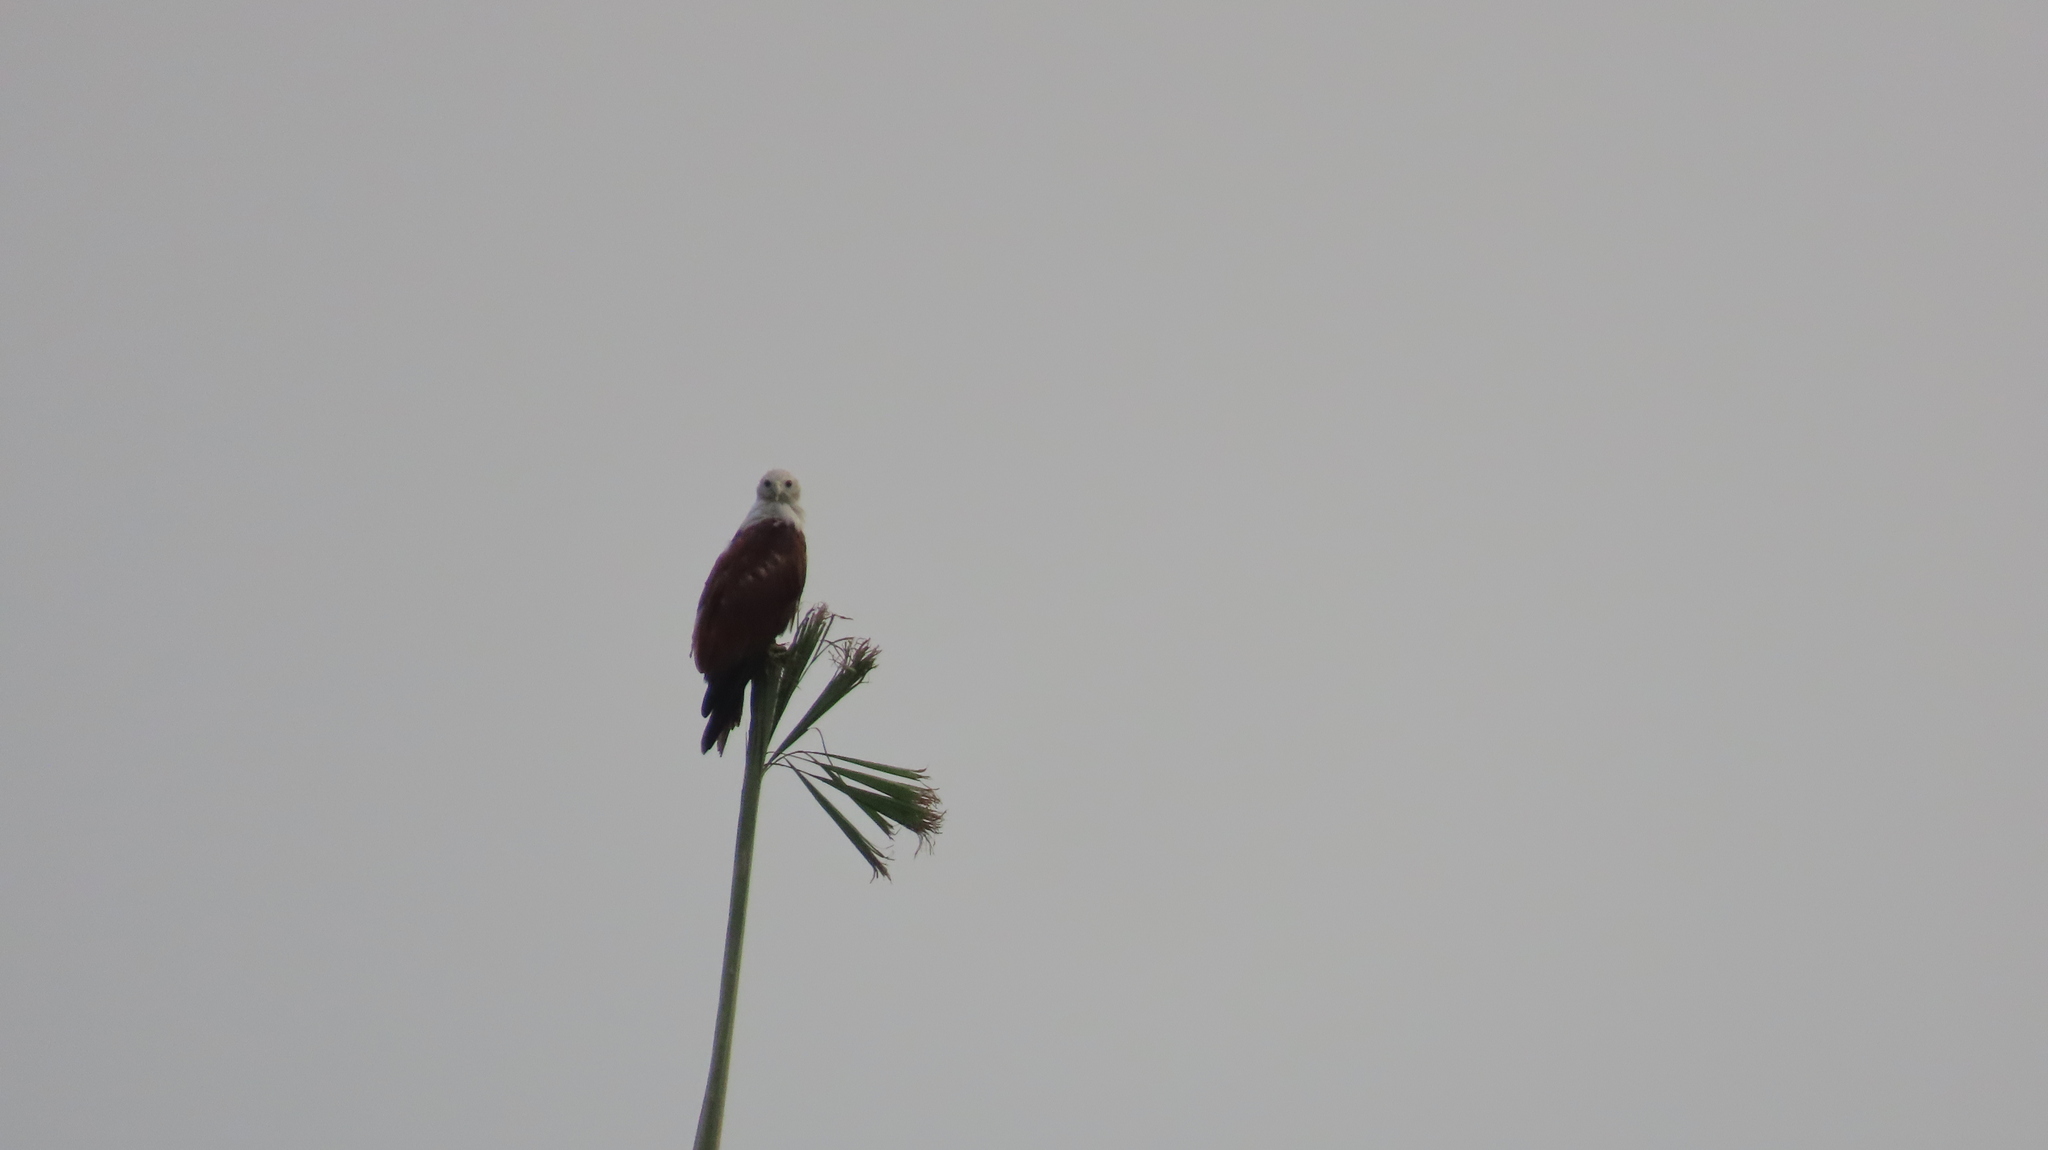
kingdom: Animalia
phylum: Chordata
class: Aves
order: Accipitriformes
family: Accipitridae
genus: Haliastur
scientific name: Haliastur indus
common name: Brahminy kite
